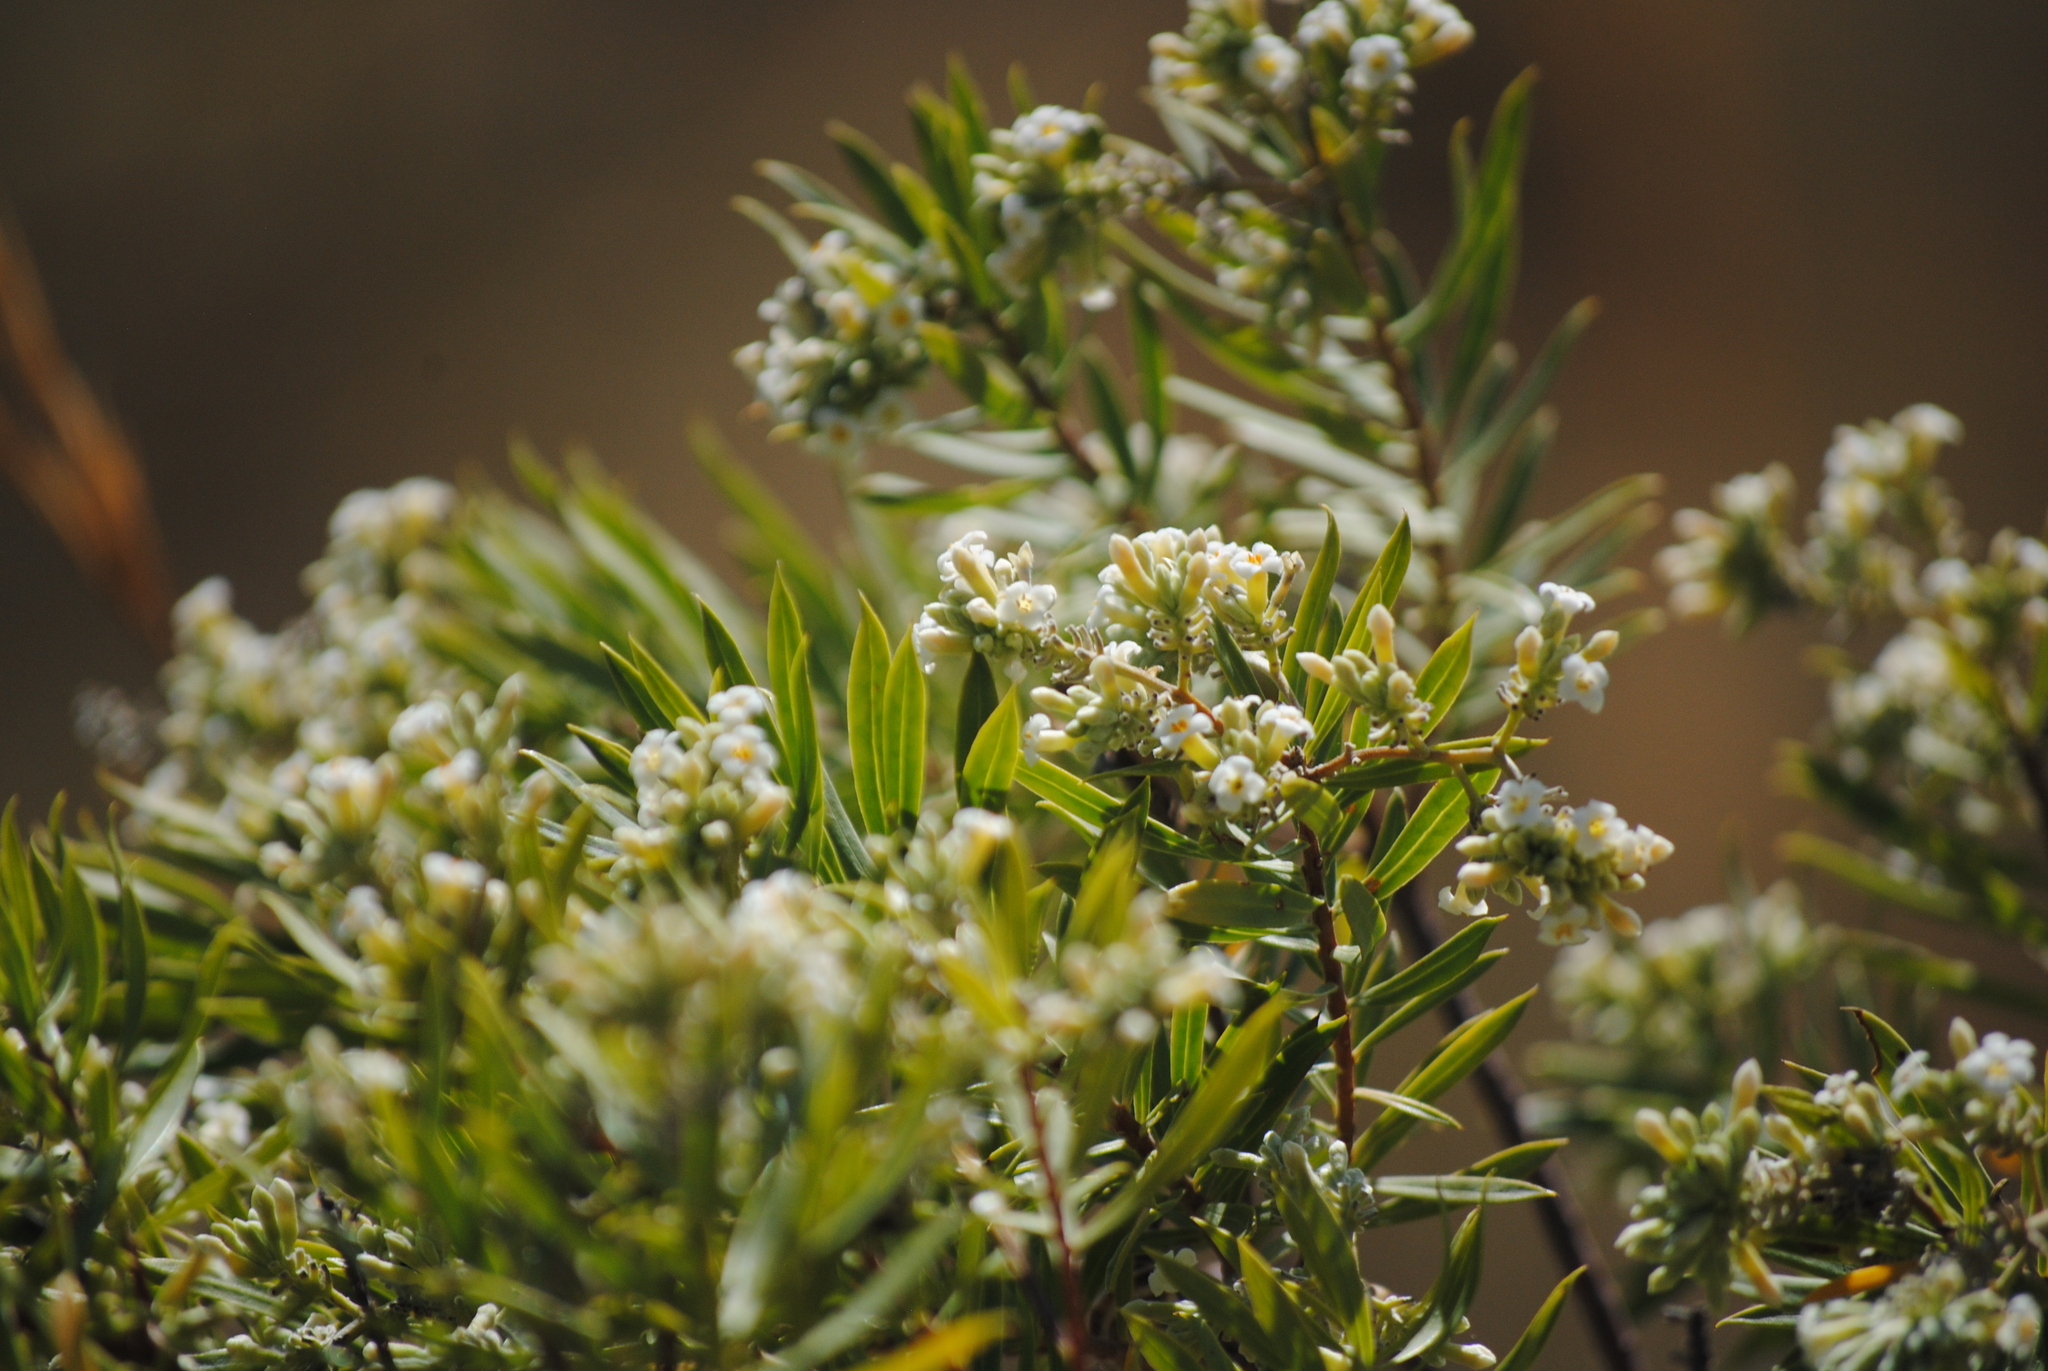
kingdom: Plantae
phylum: Tracheophyta
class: Magnoliopsida
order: Malvales
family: Thymelaeaceae
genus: Daphne
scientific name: Daphne gnidium
